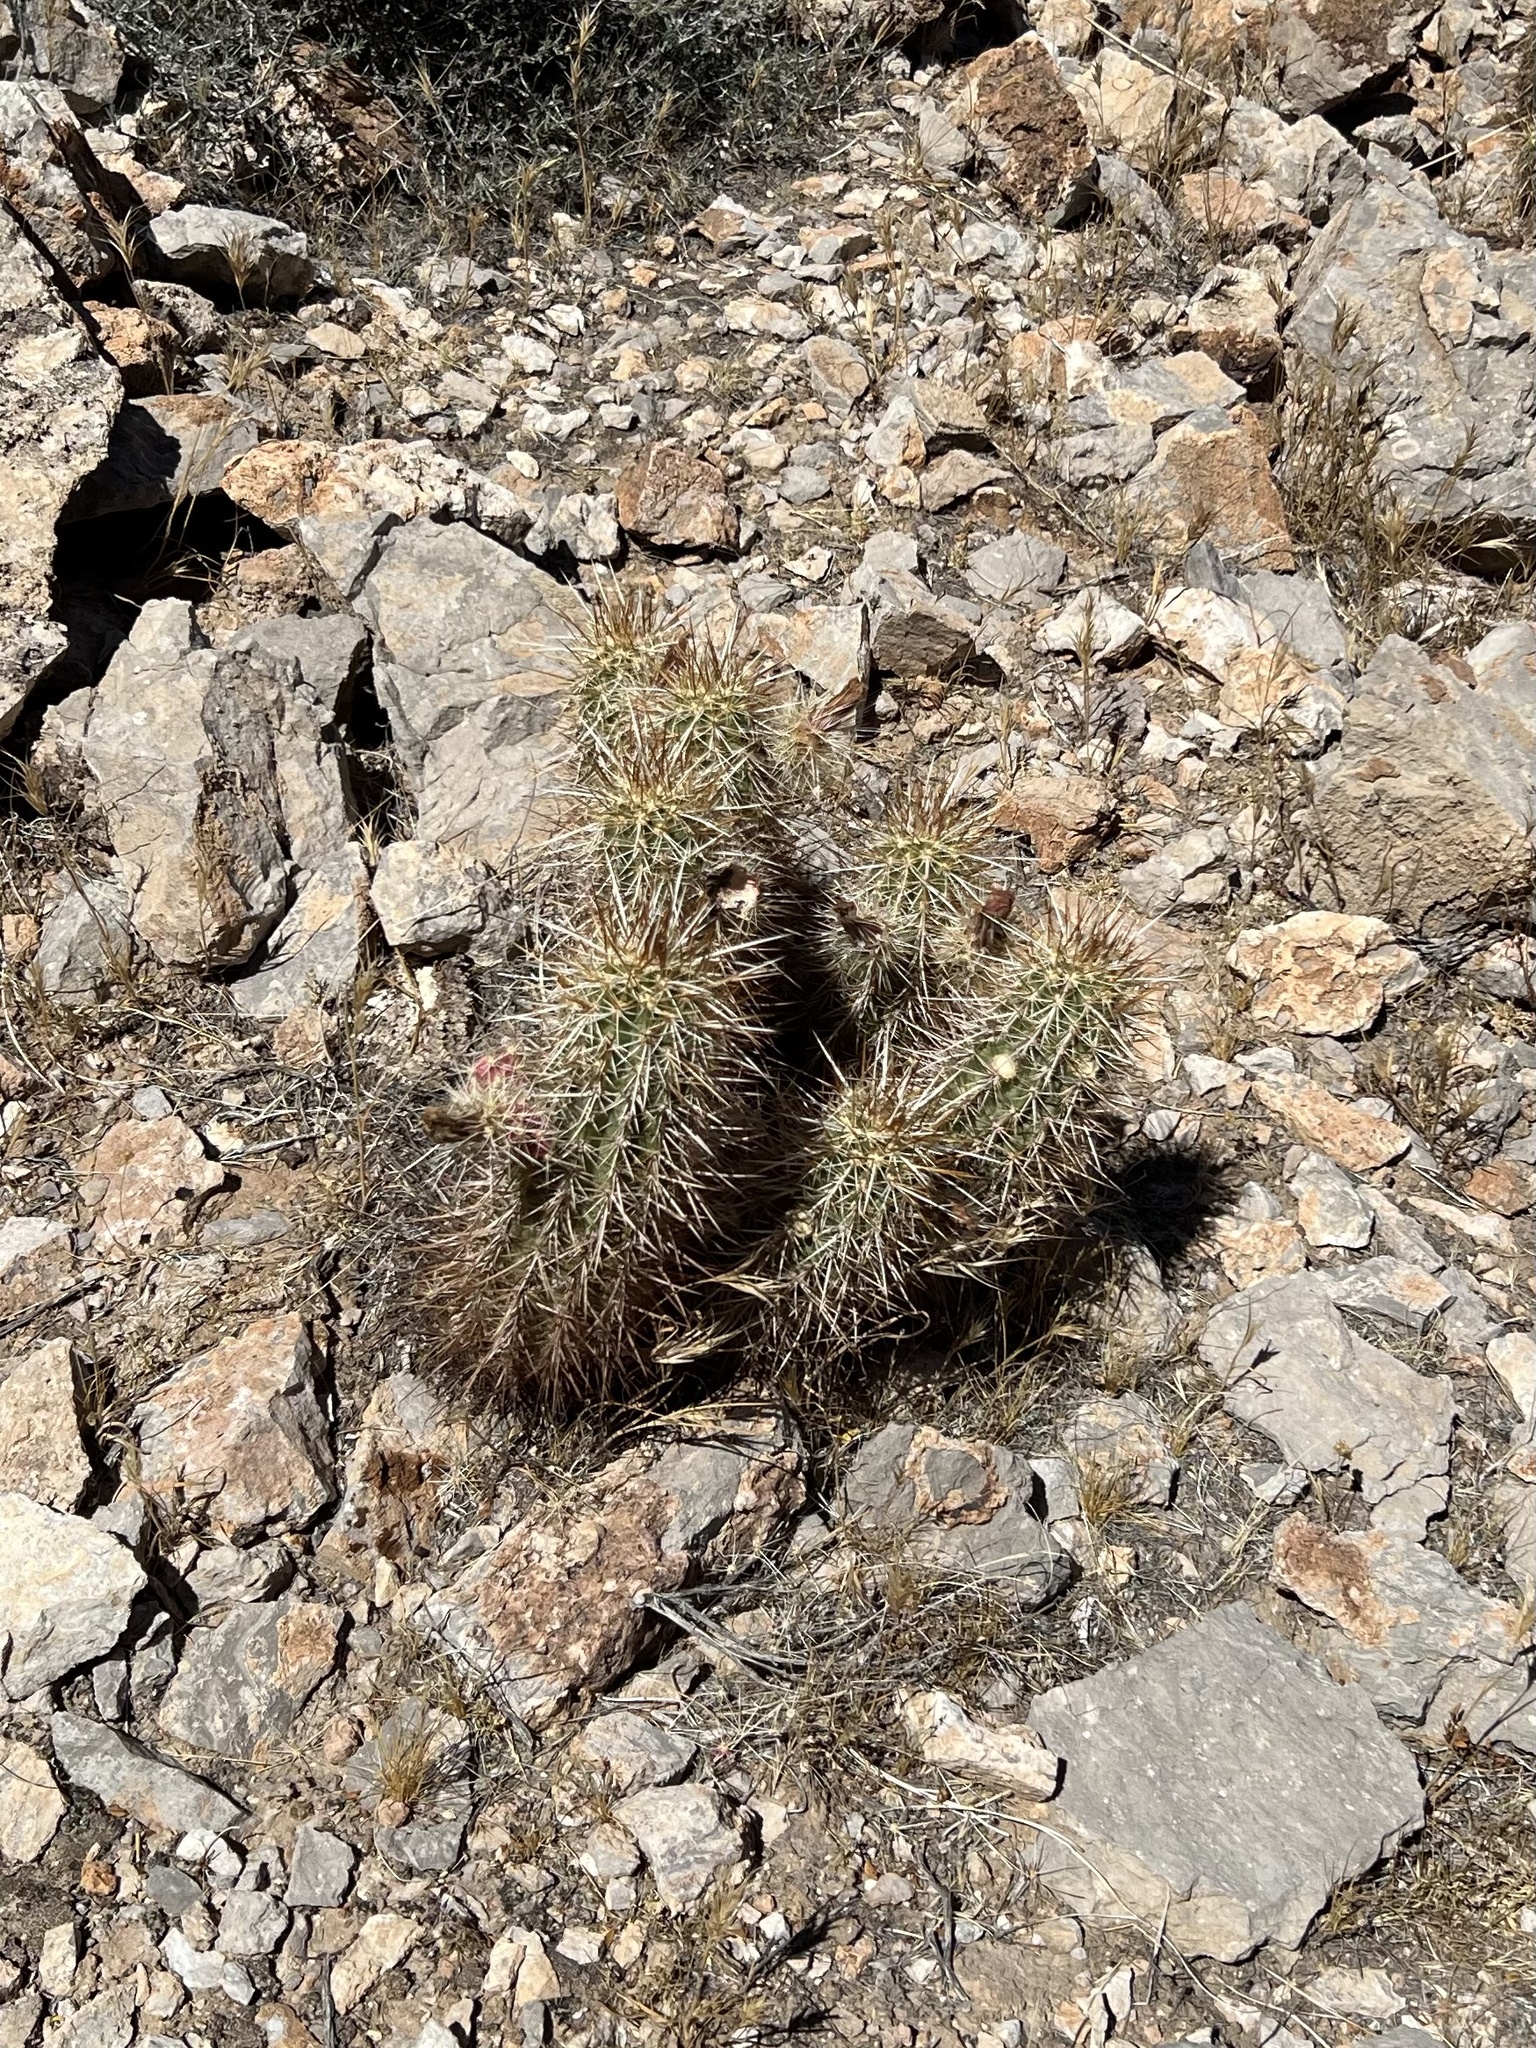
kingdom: Plantae
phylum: Tracheophyta
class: Magnoliopsida
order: Caryophyllales
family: Cactaceae
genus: Echinocereus
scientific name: Echinocereus engelmannii
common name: Engelmann's hedgehog cactus
